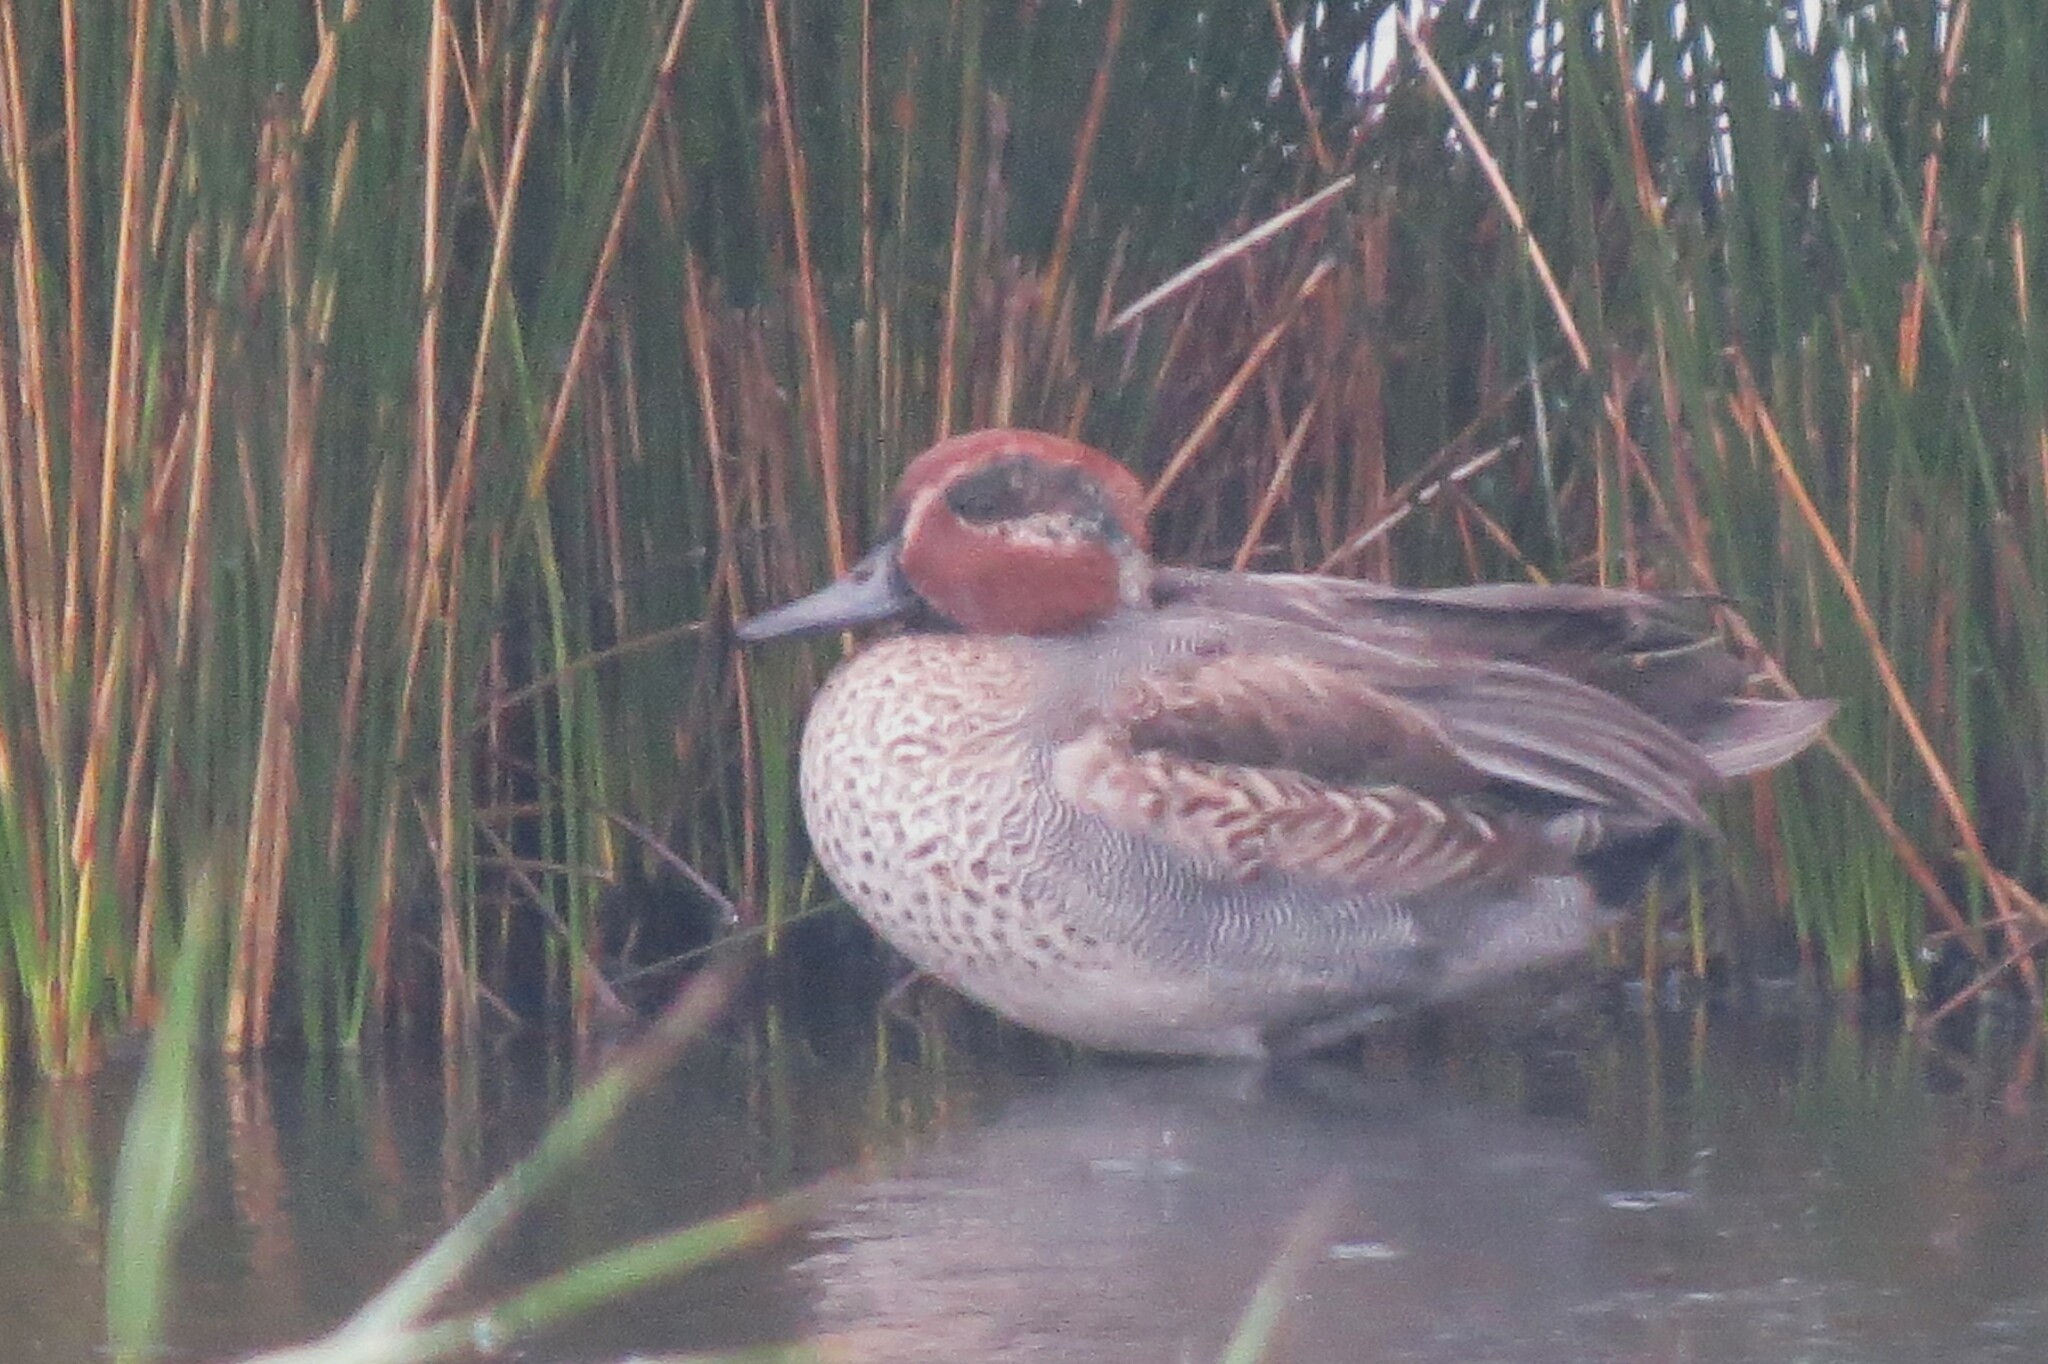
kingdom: Animalia
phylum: Chordata
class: Aves
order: Anseriformes
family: Anatidae
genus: Anas
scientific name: Anas crecca
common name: Eurasian teal
